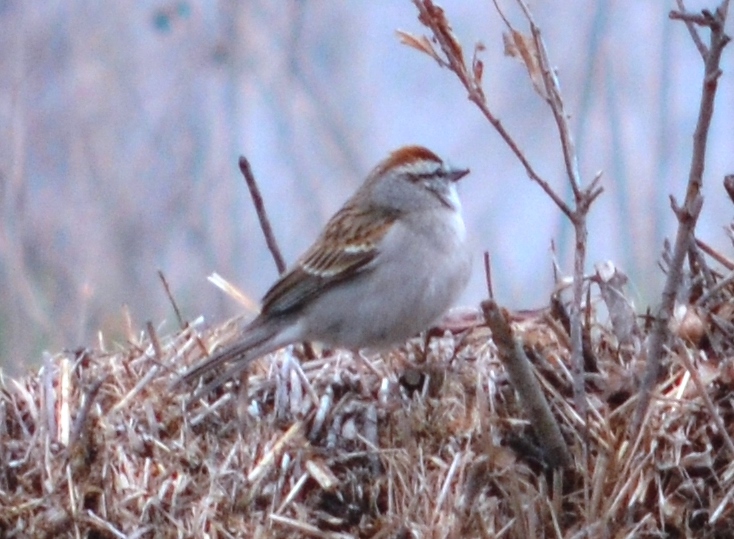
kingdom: Animalia
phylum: Chordata
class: Aves
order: Passeriformes
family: Passerellidae
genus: Spizella
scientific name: Spizella passerina
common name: Chipping sparrow
